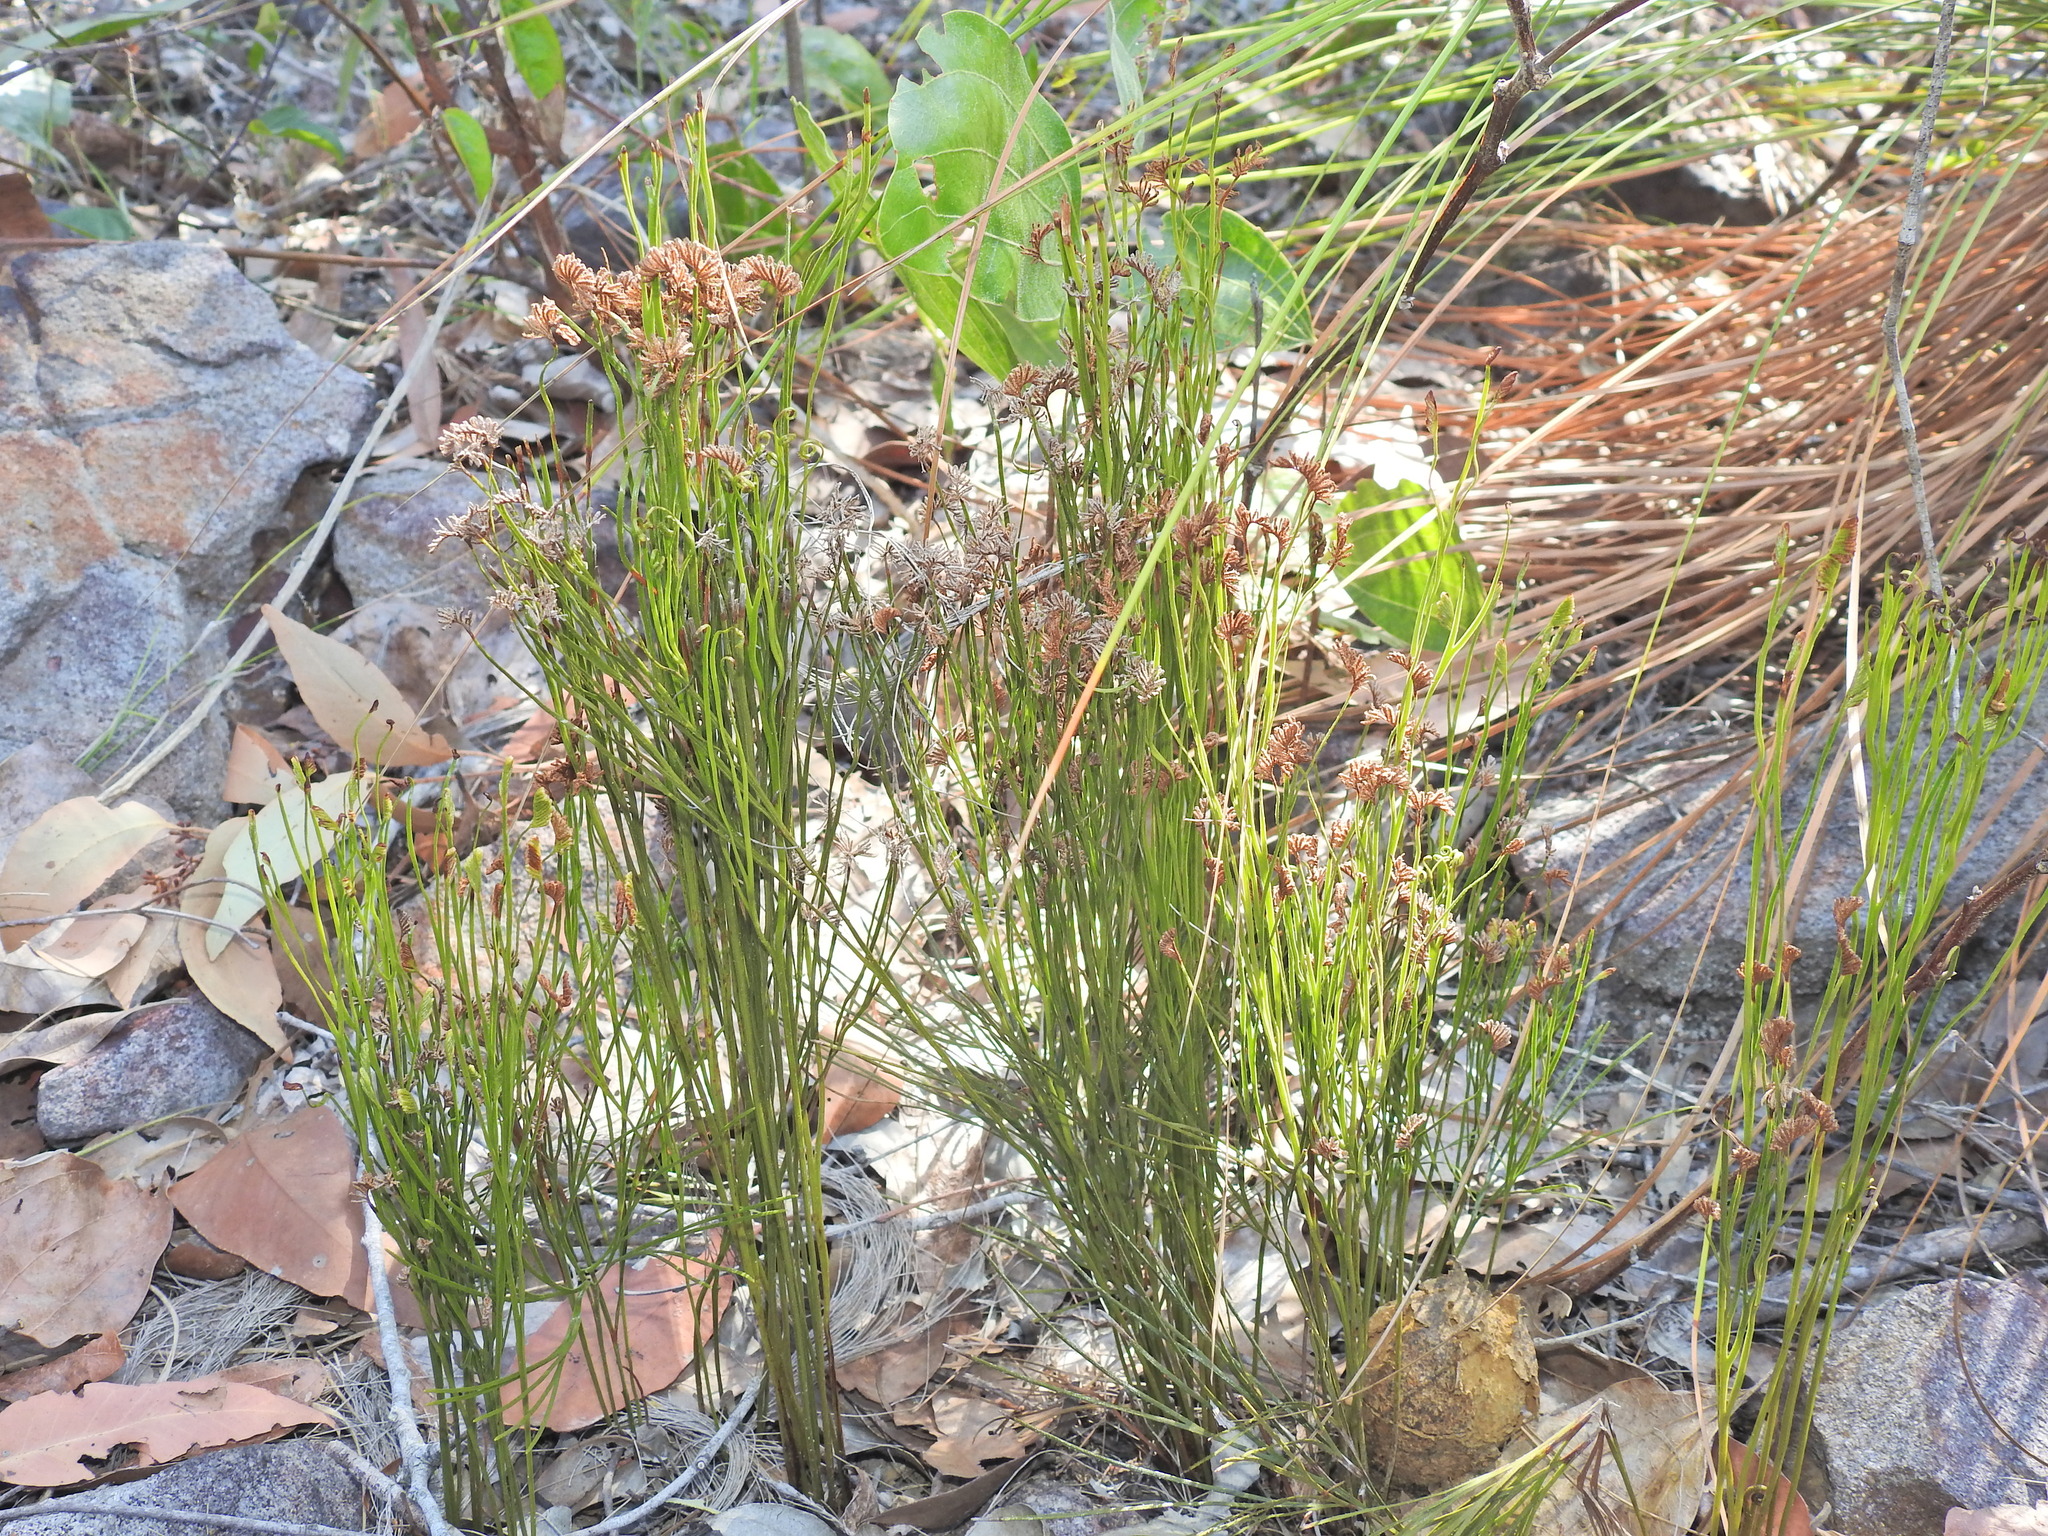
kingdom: Plantae
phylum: Tracheophyta
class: Polypodiopsida
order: Schizaeales
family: Schizaeaceae
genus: Schizaea
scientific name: Schizaea bifida
